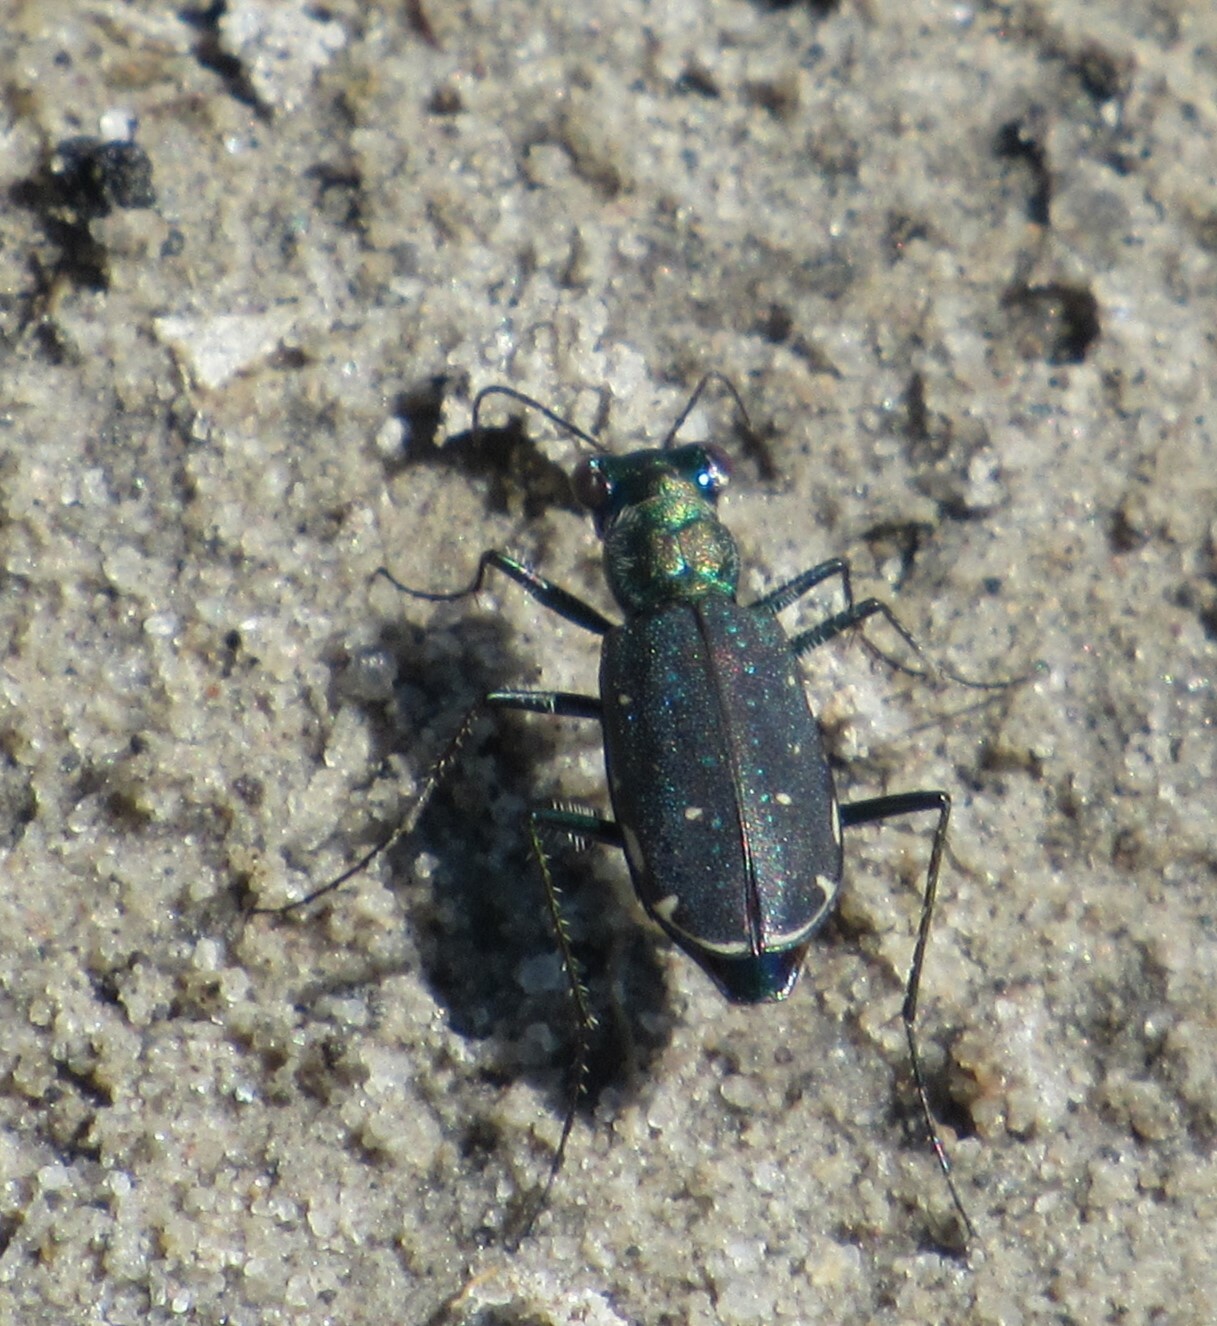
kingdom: Animalia
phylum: Arthropoda
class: Insecta
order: Coleoptera
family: Carabidae
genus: Cicindela
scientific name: Cicindela punctulata
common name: Punctured tiger beetle
